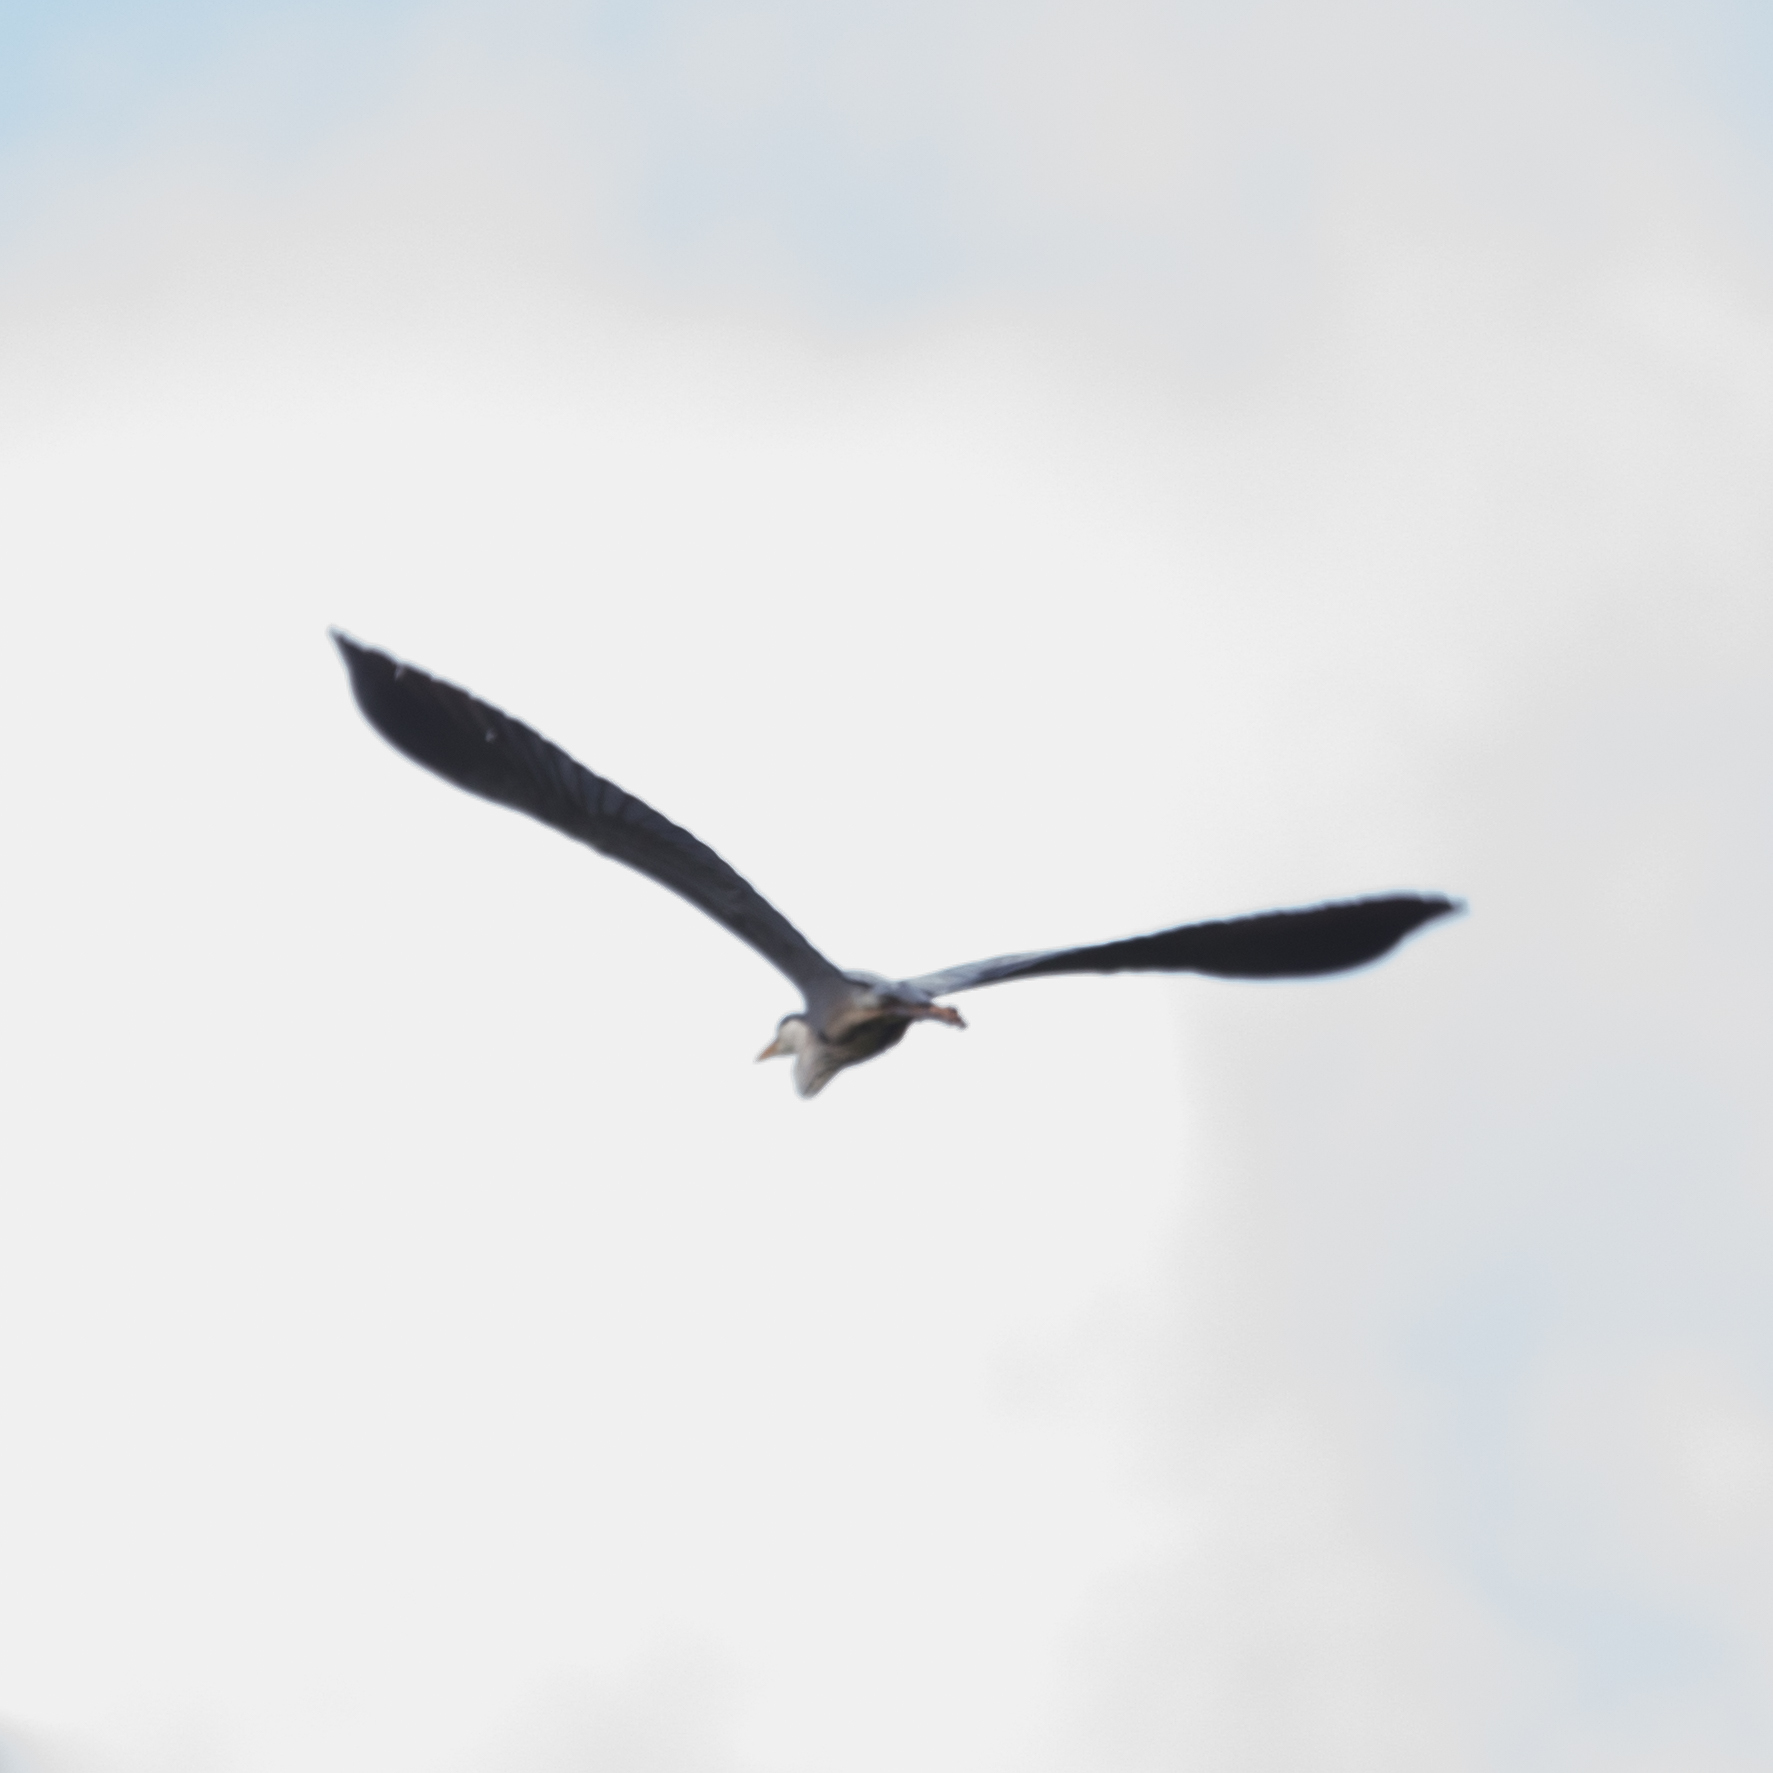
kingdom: Animalia
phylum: Chordata
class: Aves
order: Pelecaniformes
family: Ardeidae
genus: Ardea
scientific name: Ardea cinerea
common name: Grey heron
